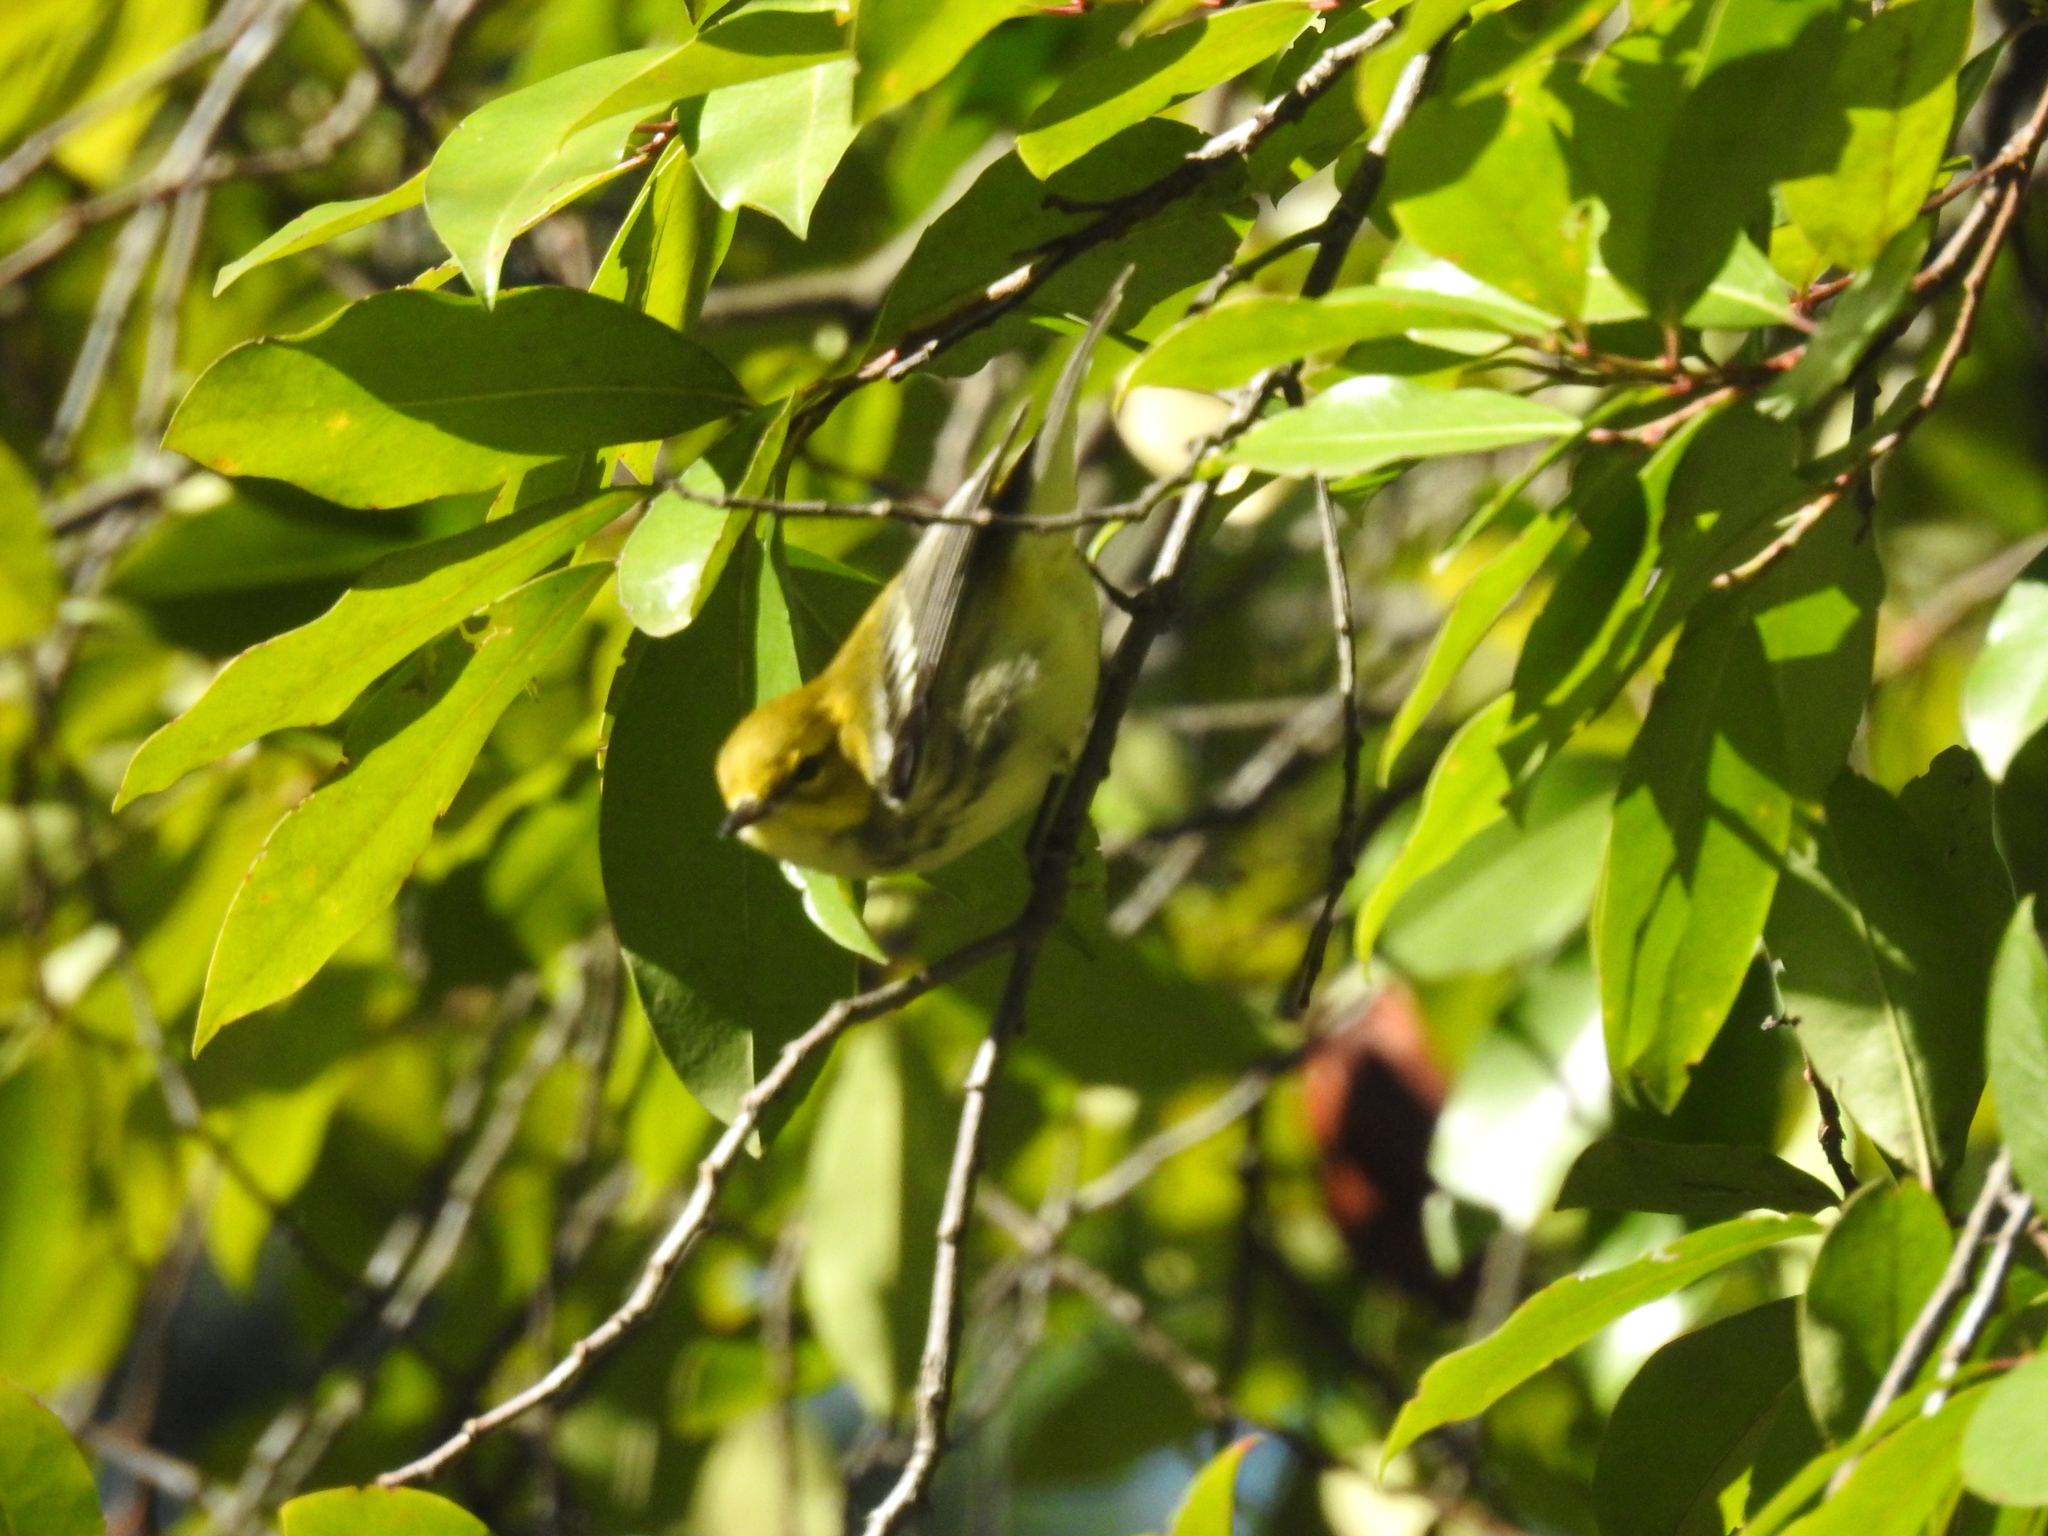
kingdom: Animalia
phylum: Chordata
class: Aves
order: Passeriformes
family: Parulidae
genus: Setophaga
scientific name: Setophaga virens
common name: Black-throated green warbler
